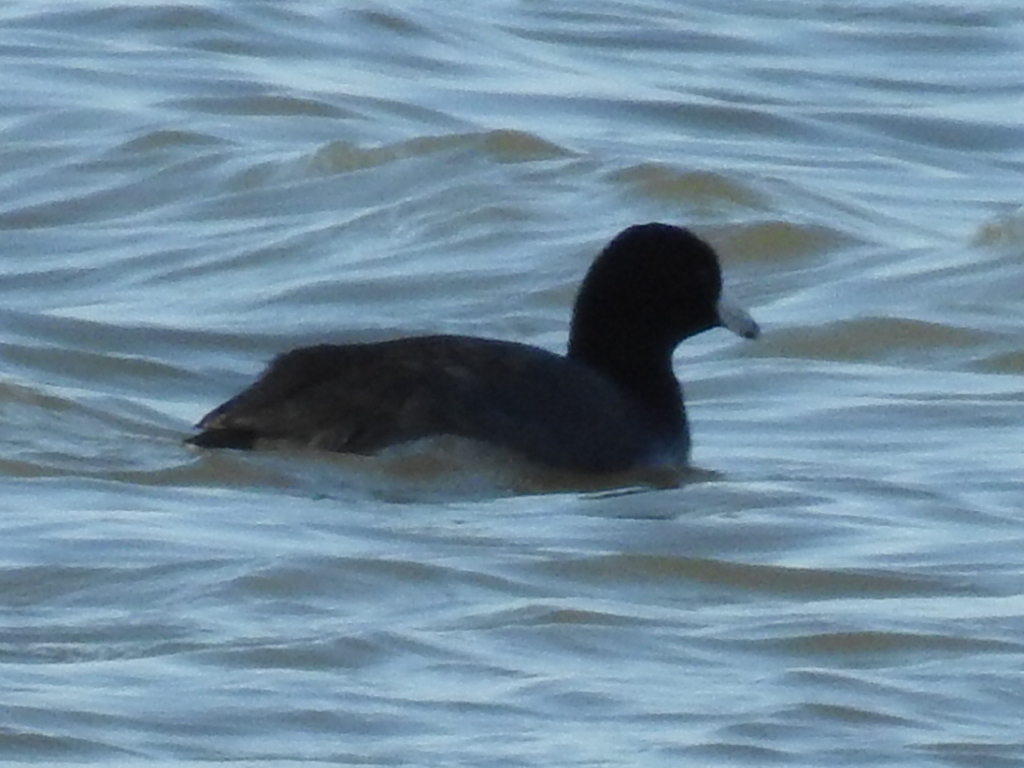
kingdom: Animalia
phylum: Chordata
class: Aves
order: Gruiformes
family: Rallidae
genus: Fulica
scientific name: Fulica americana
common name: American coot
